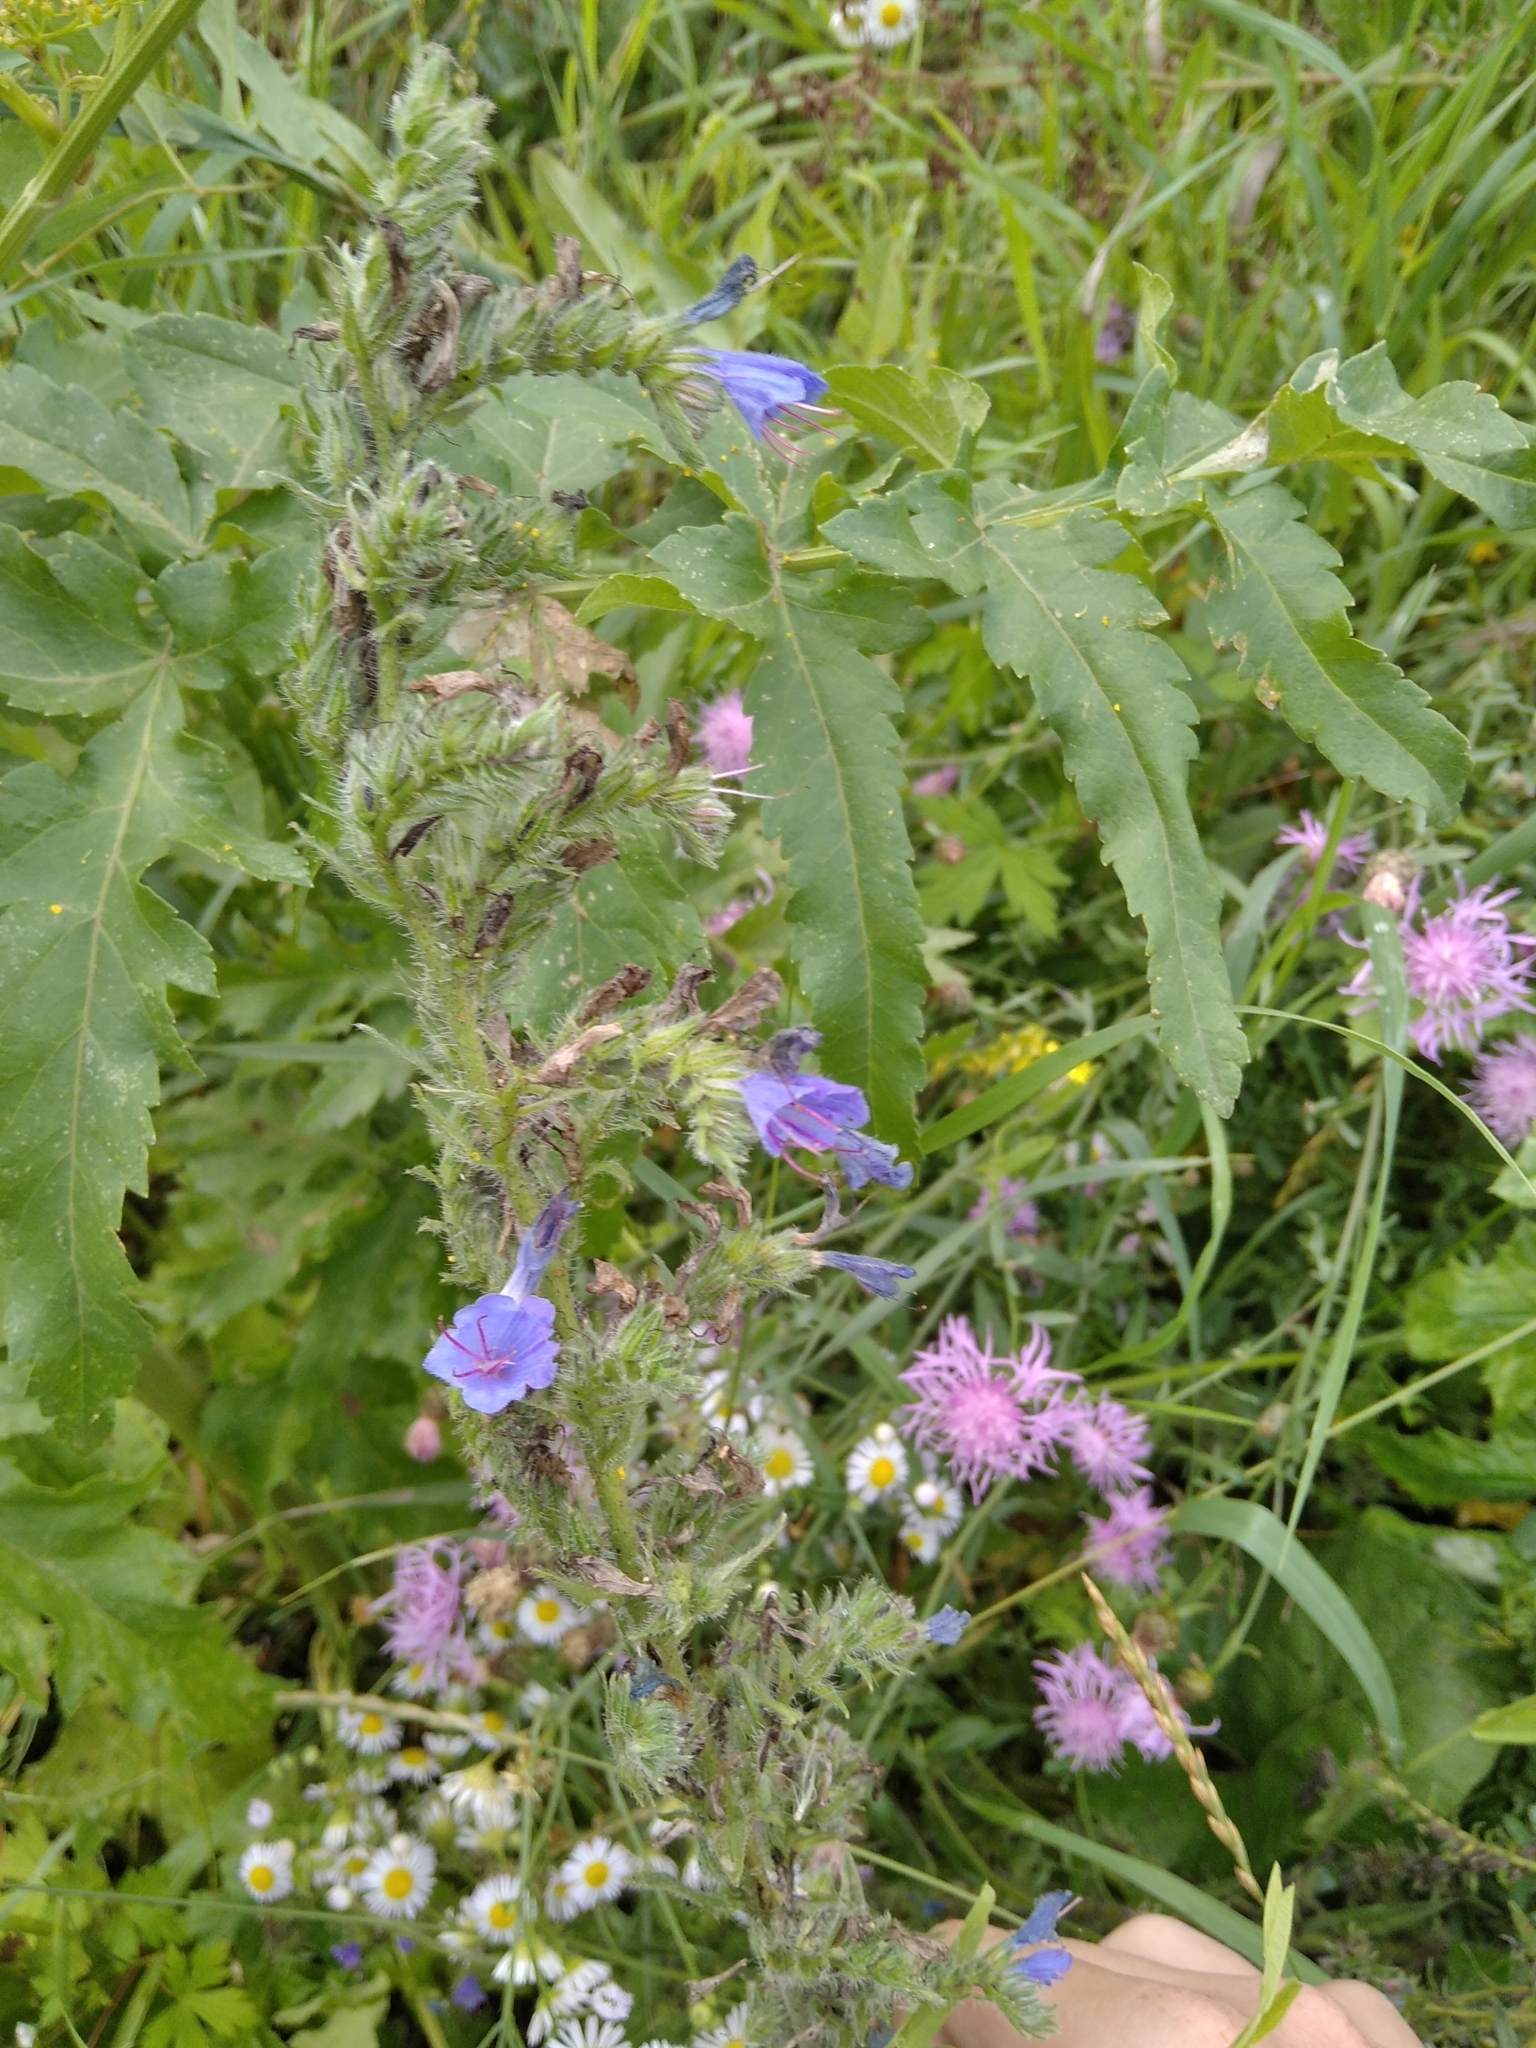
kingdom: Plantae
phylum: Tracheophyta
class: Magnoliopsida
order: Boraginales
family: Boraginaceae
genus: Echium
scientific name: Echium vulgare
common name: Common viper's bugloss
